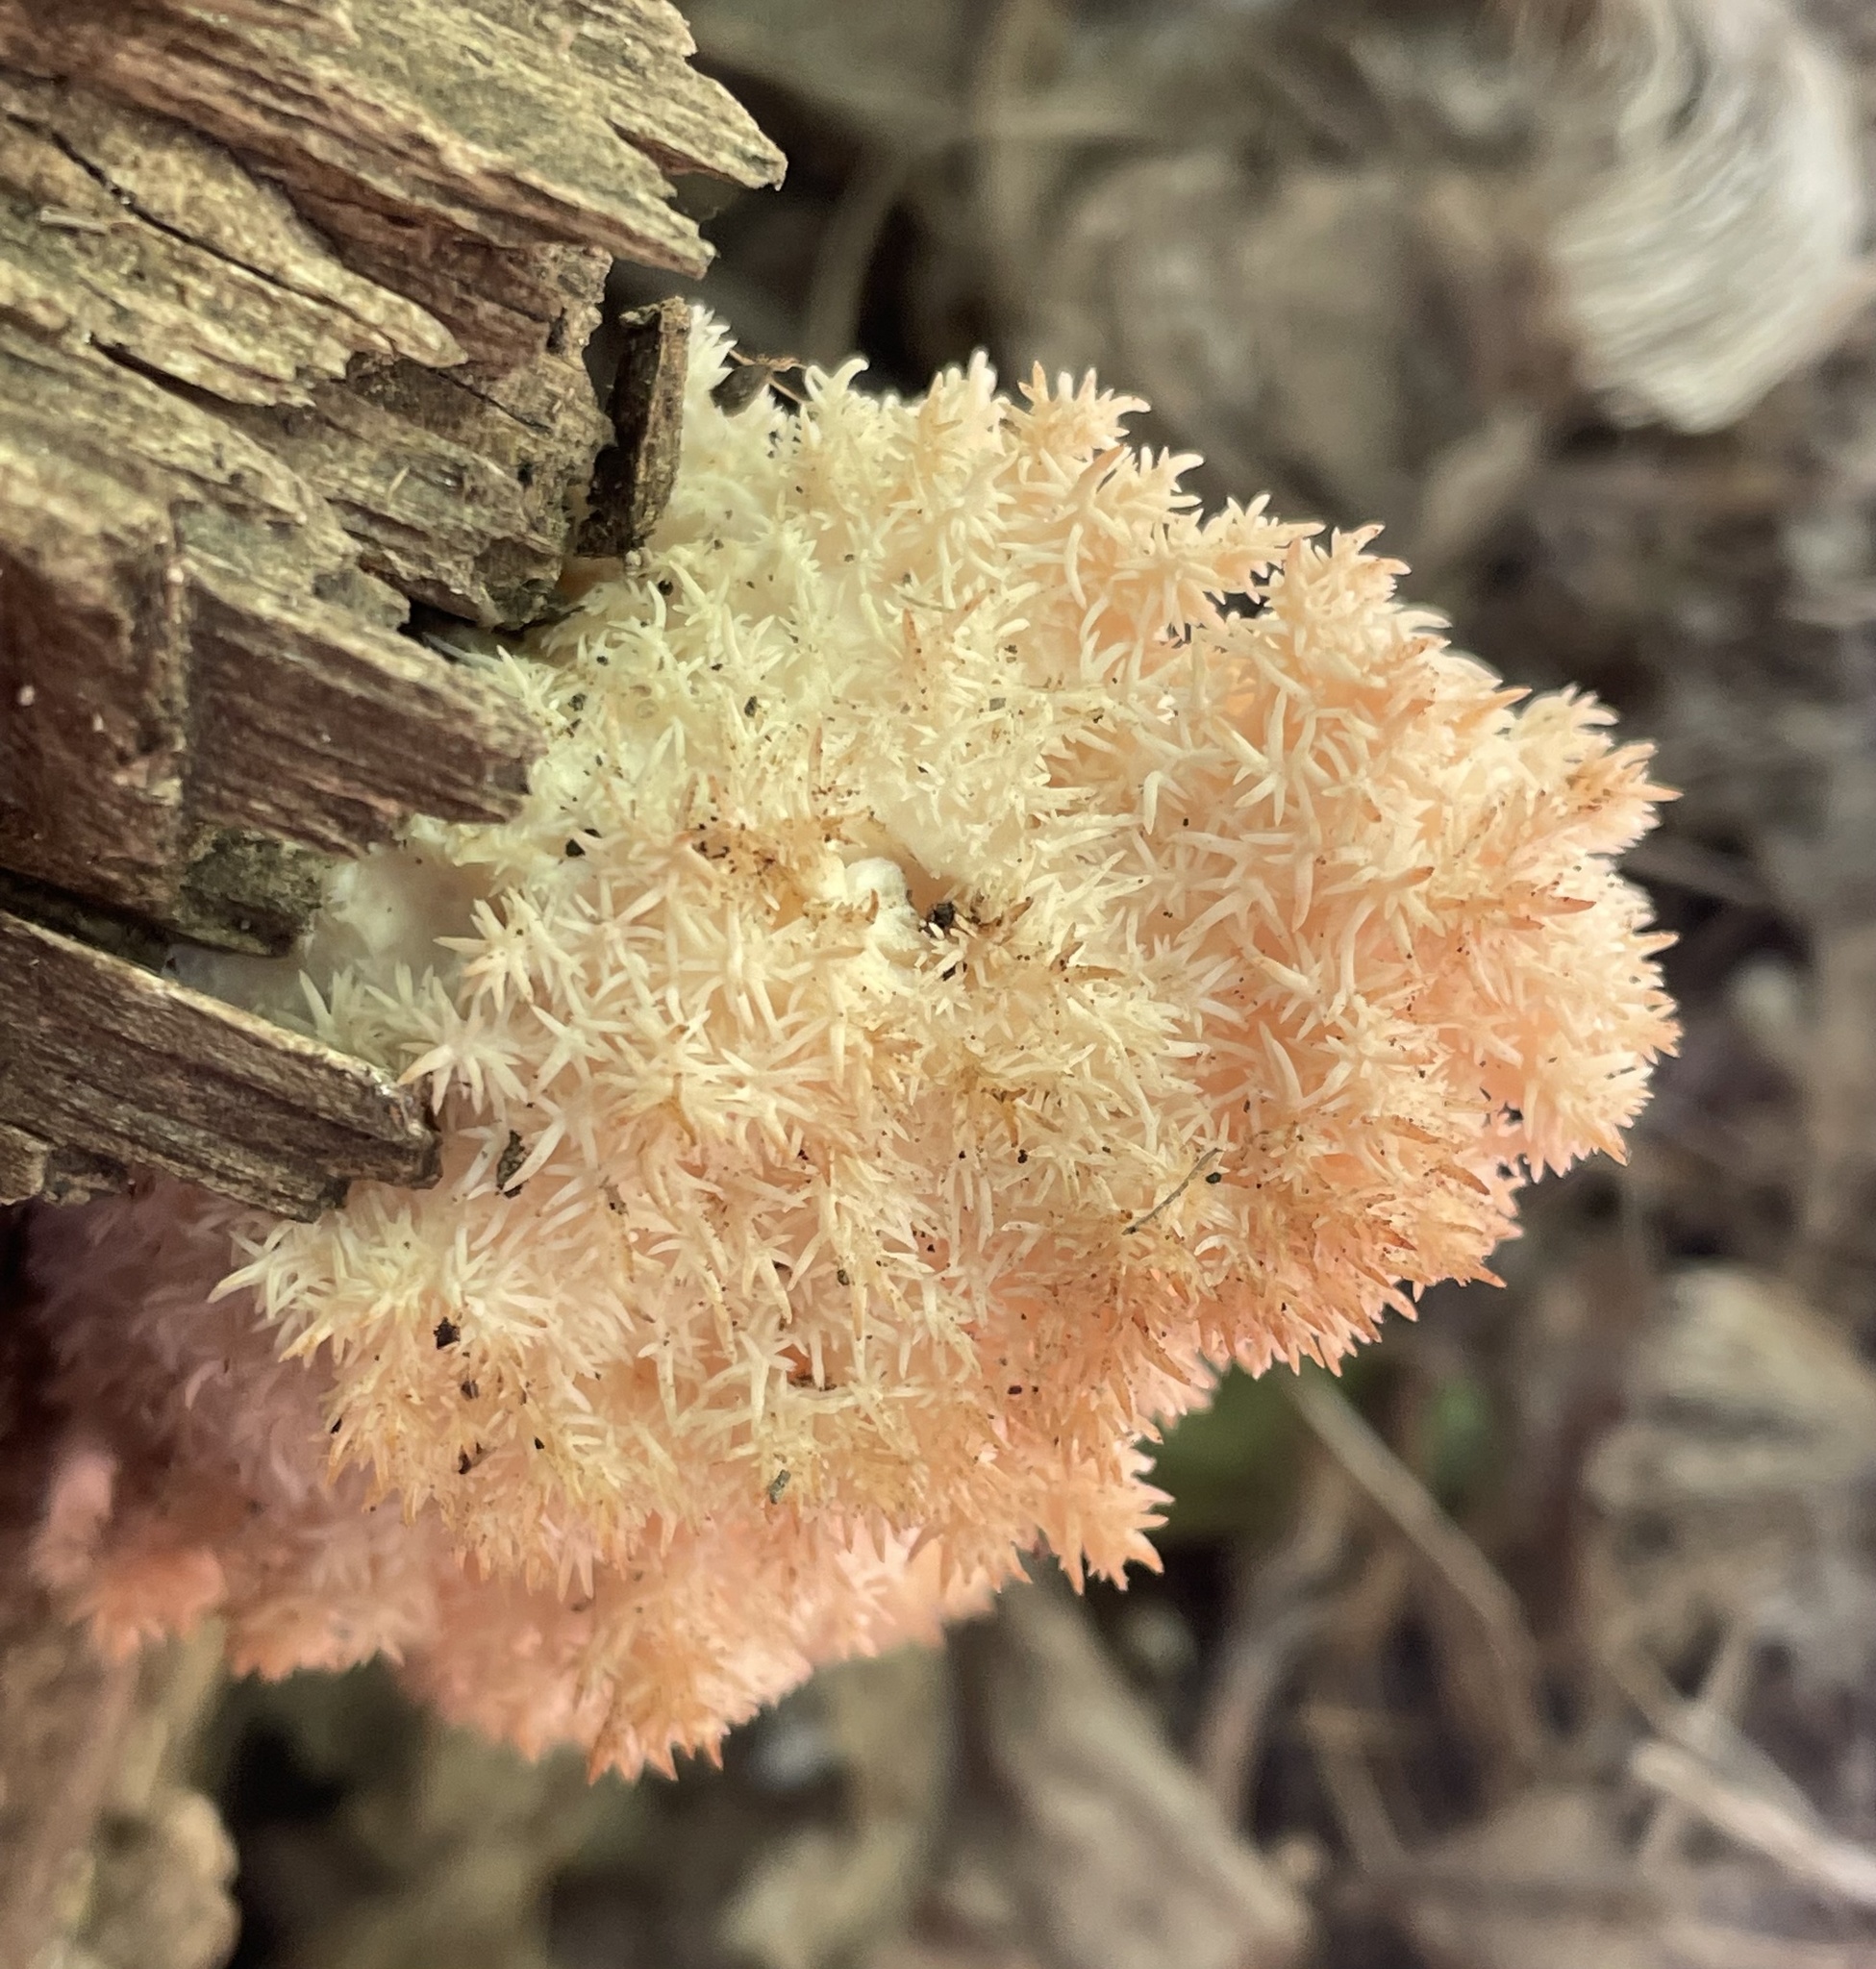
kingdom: Fungi
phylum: Basidiomycota
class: Agaricomycetes
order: Russulales
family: Hericiaceae
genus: Hericium
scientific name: Hericium coralloides
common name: Coral tooth
